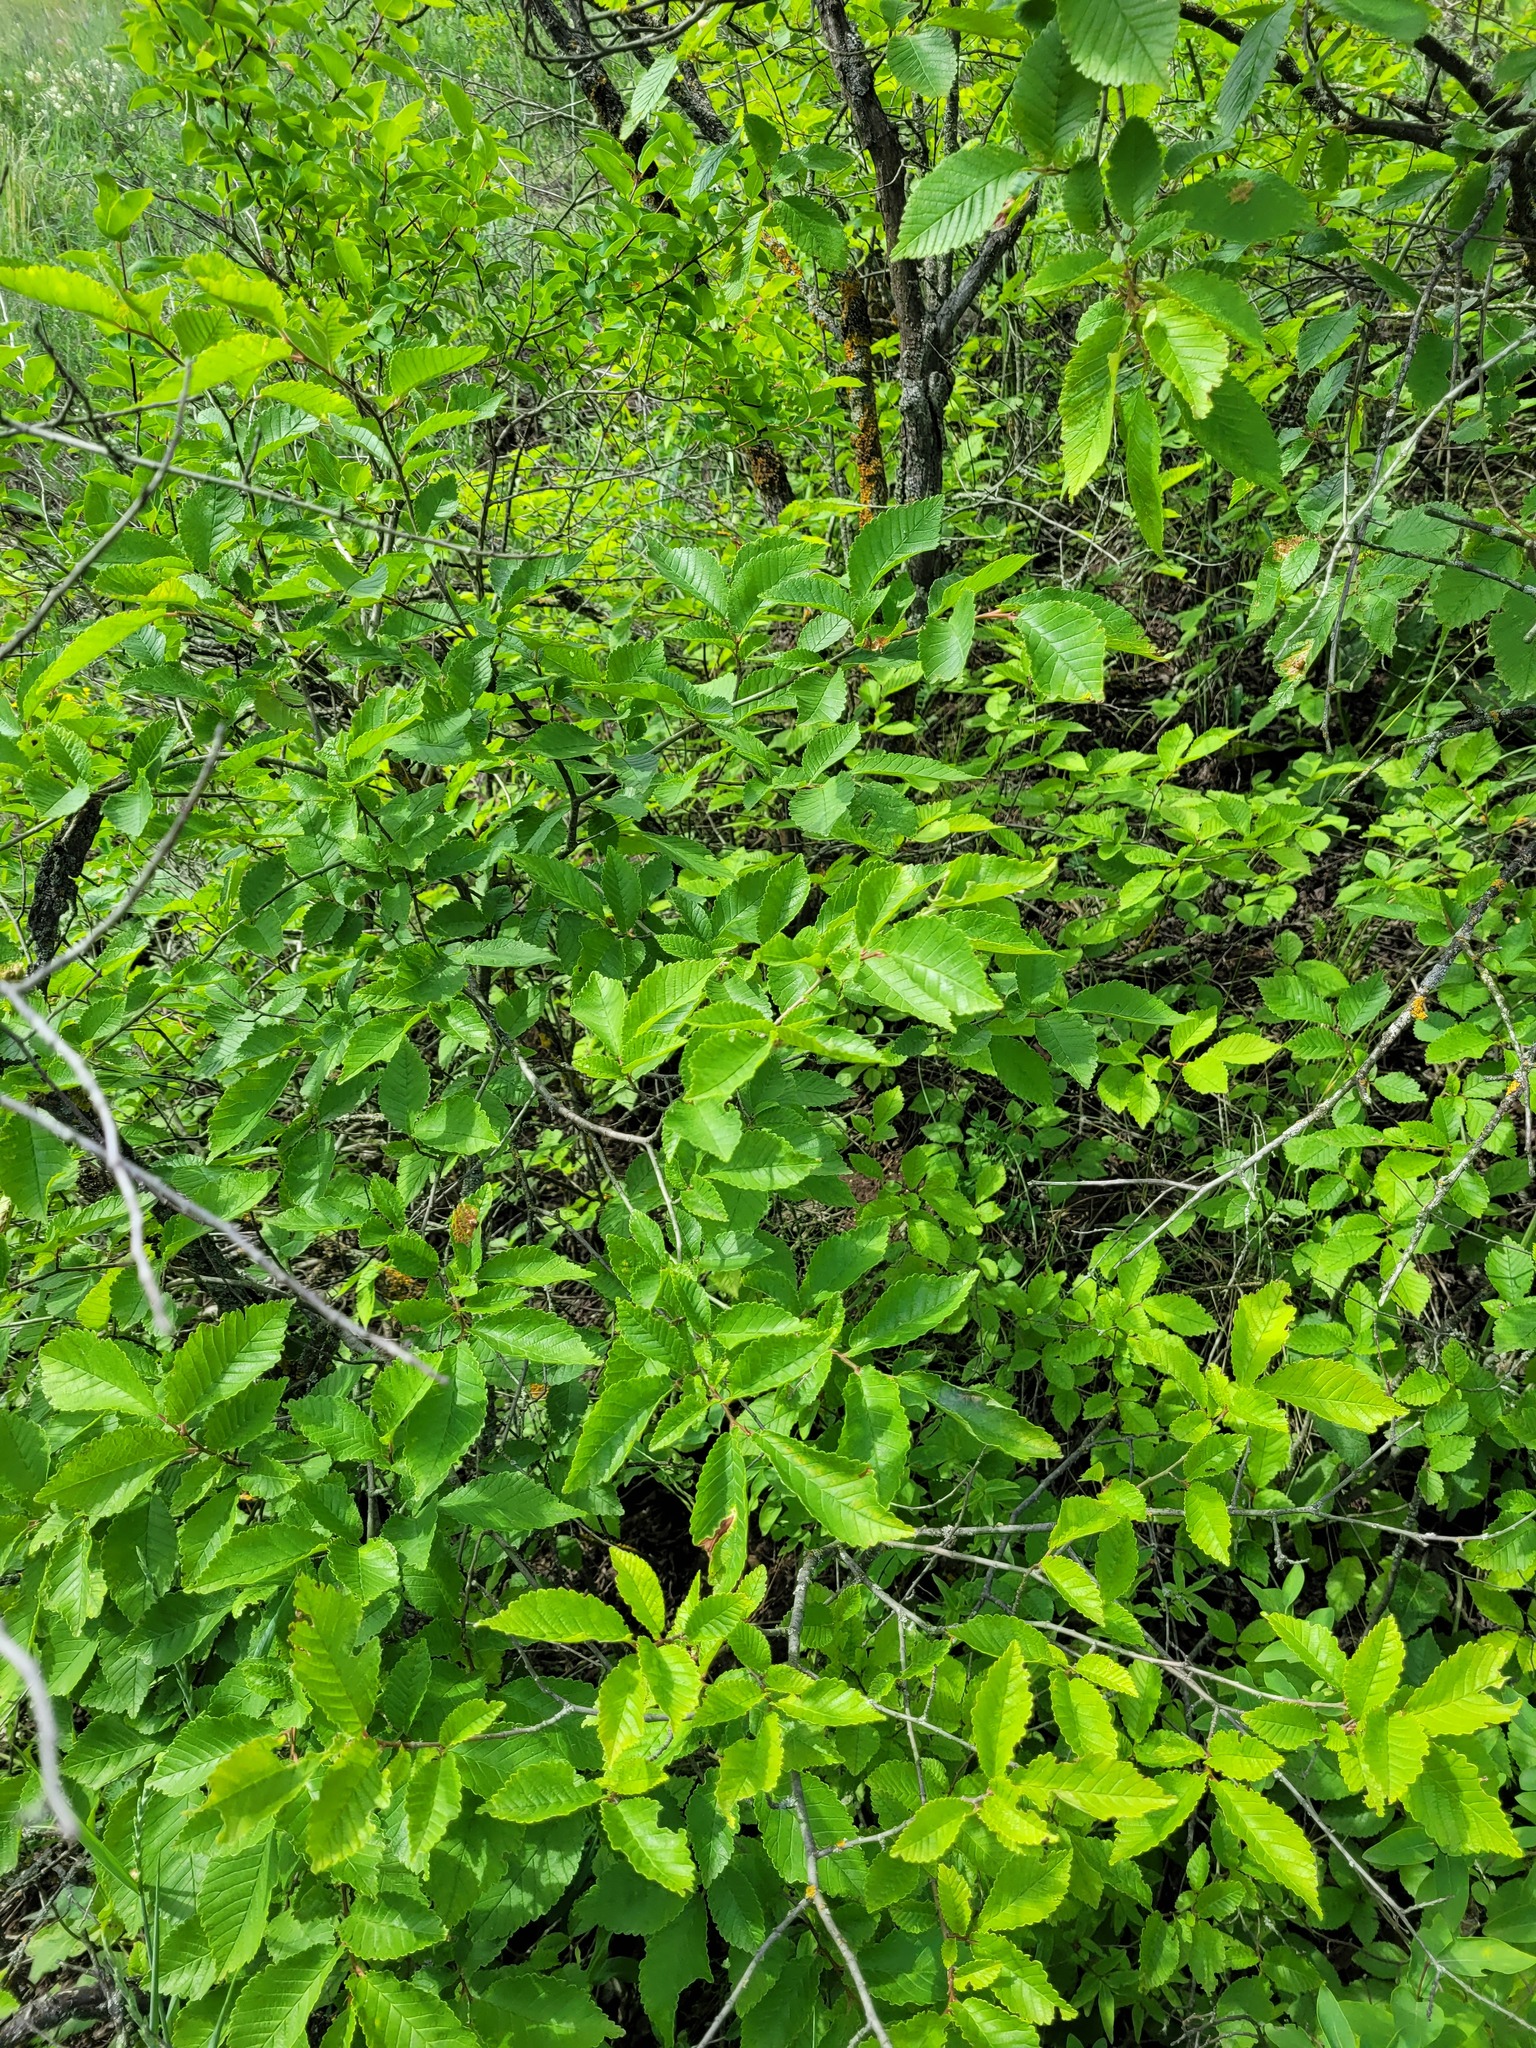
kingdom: Plantae
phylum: Tracheophyta
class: Magnoliopsida
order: Rosales
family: Ulmaceae
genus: Ulmus
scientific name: Ulmus minor
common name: Small-leaved elm
